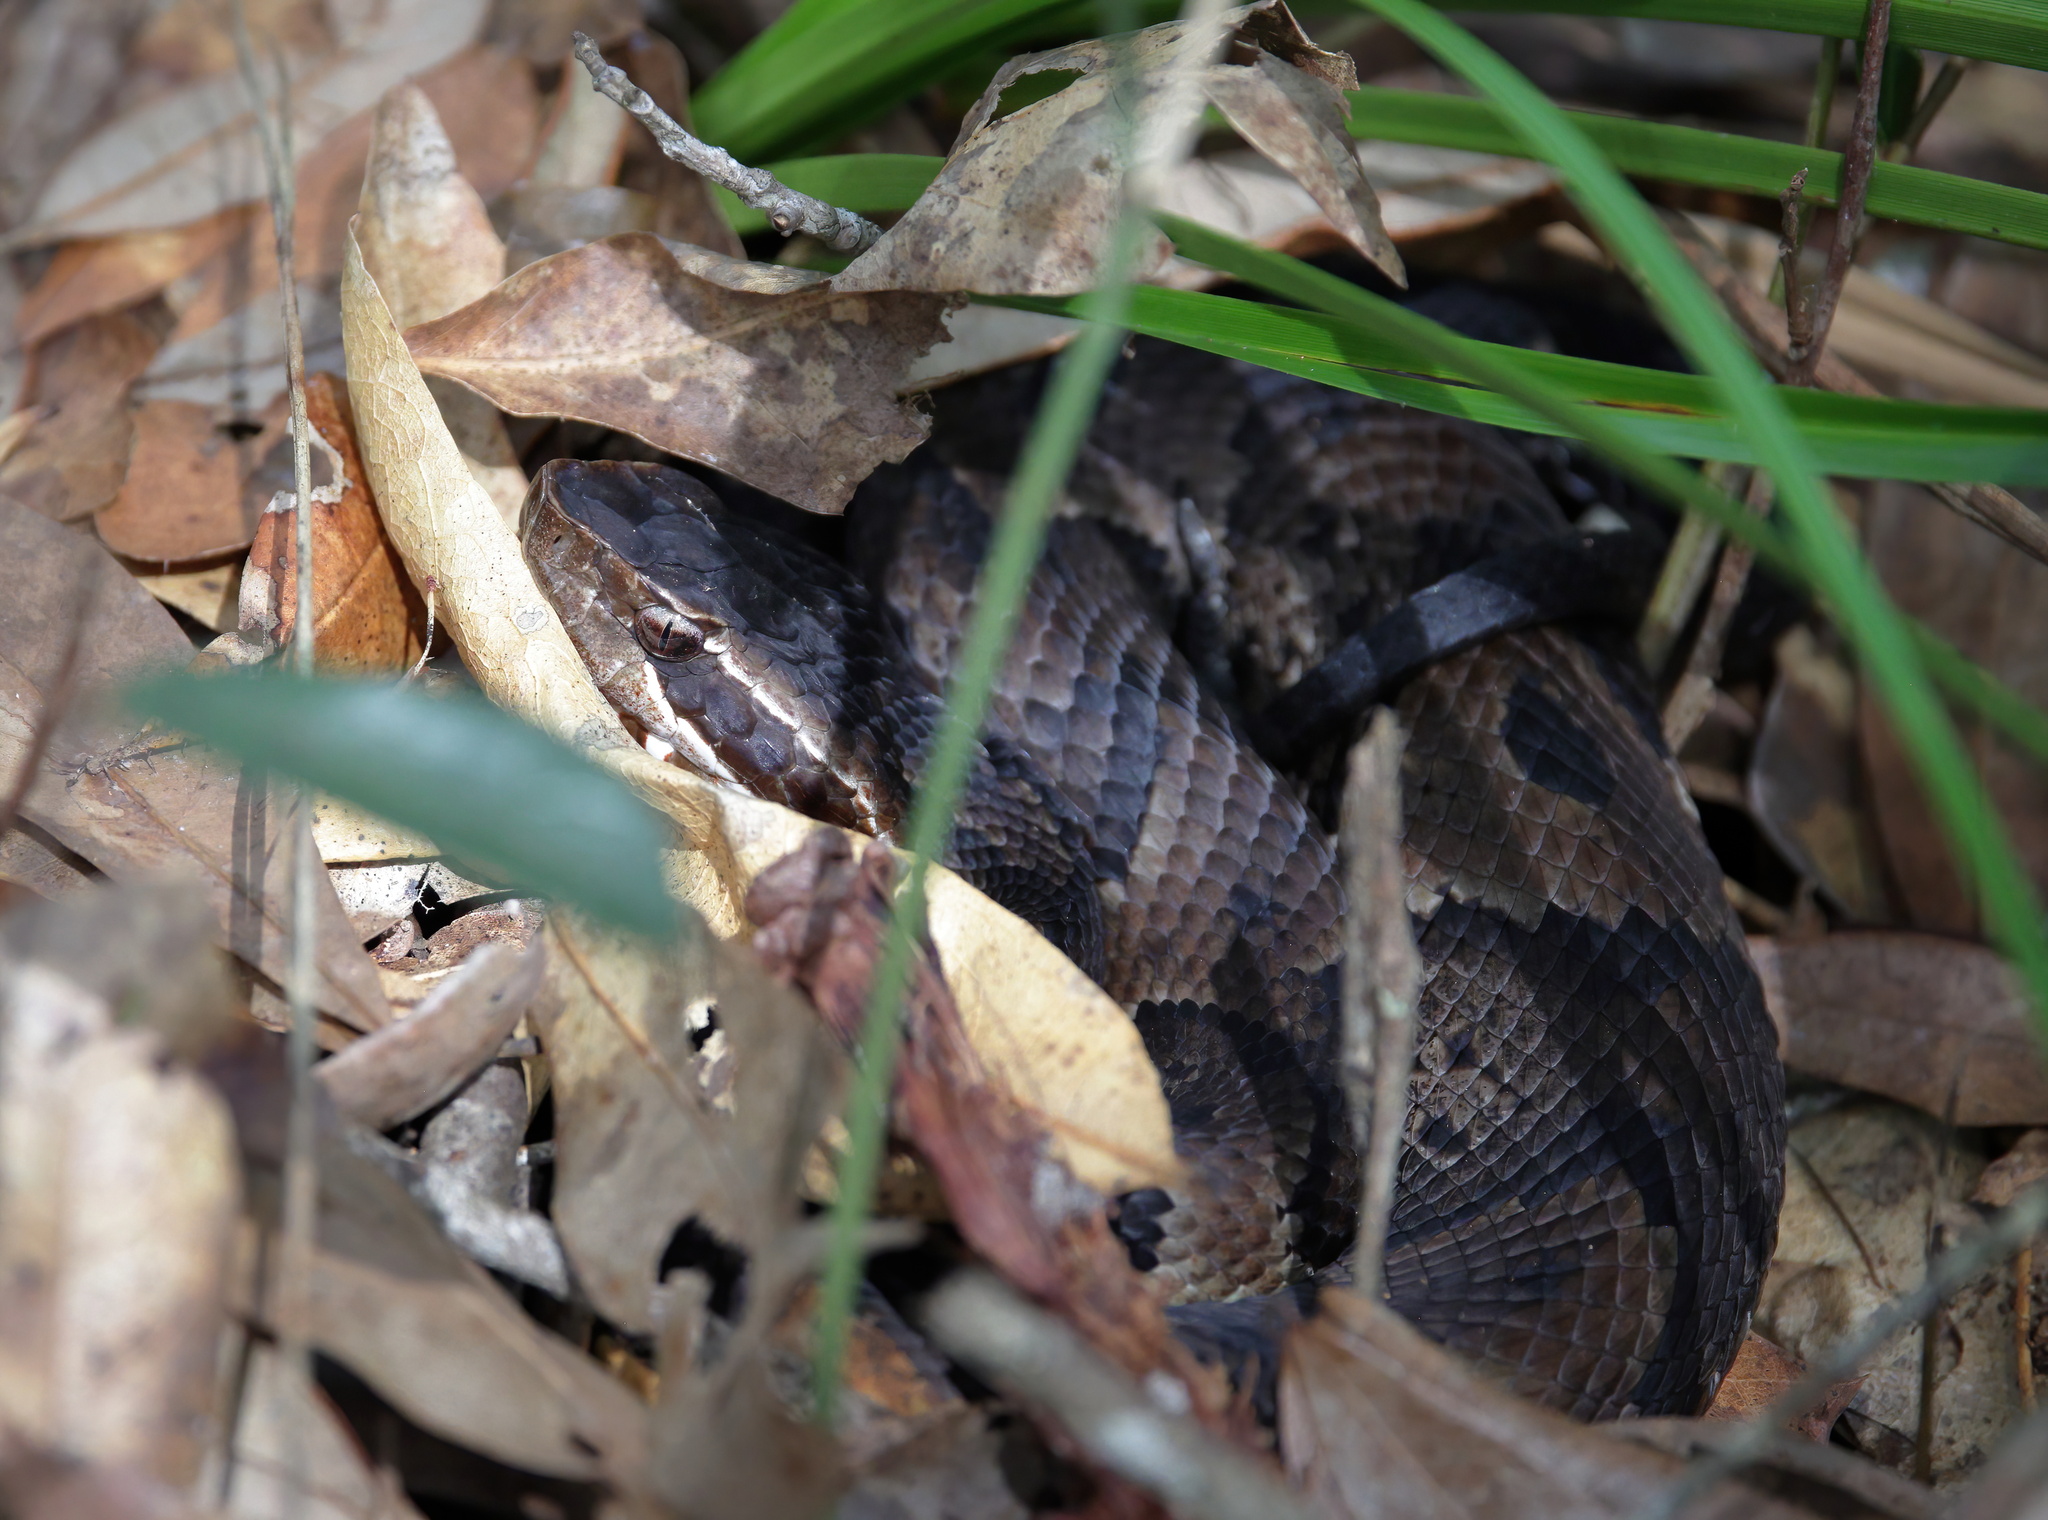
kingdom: Animalia
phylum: Chordata
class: Squamata
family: Viperidae
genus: Agkistrodon
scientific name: Agkistrodon piscivorus
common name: Cottonmouth
